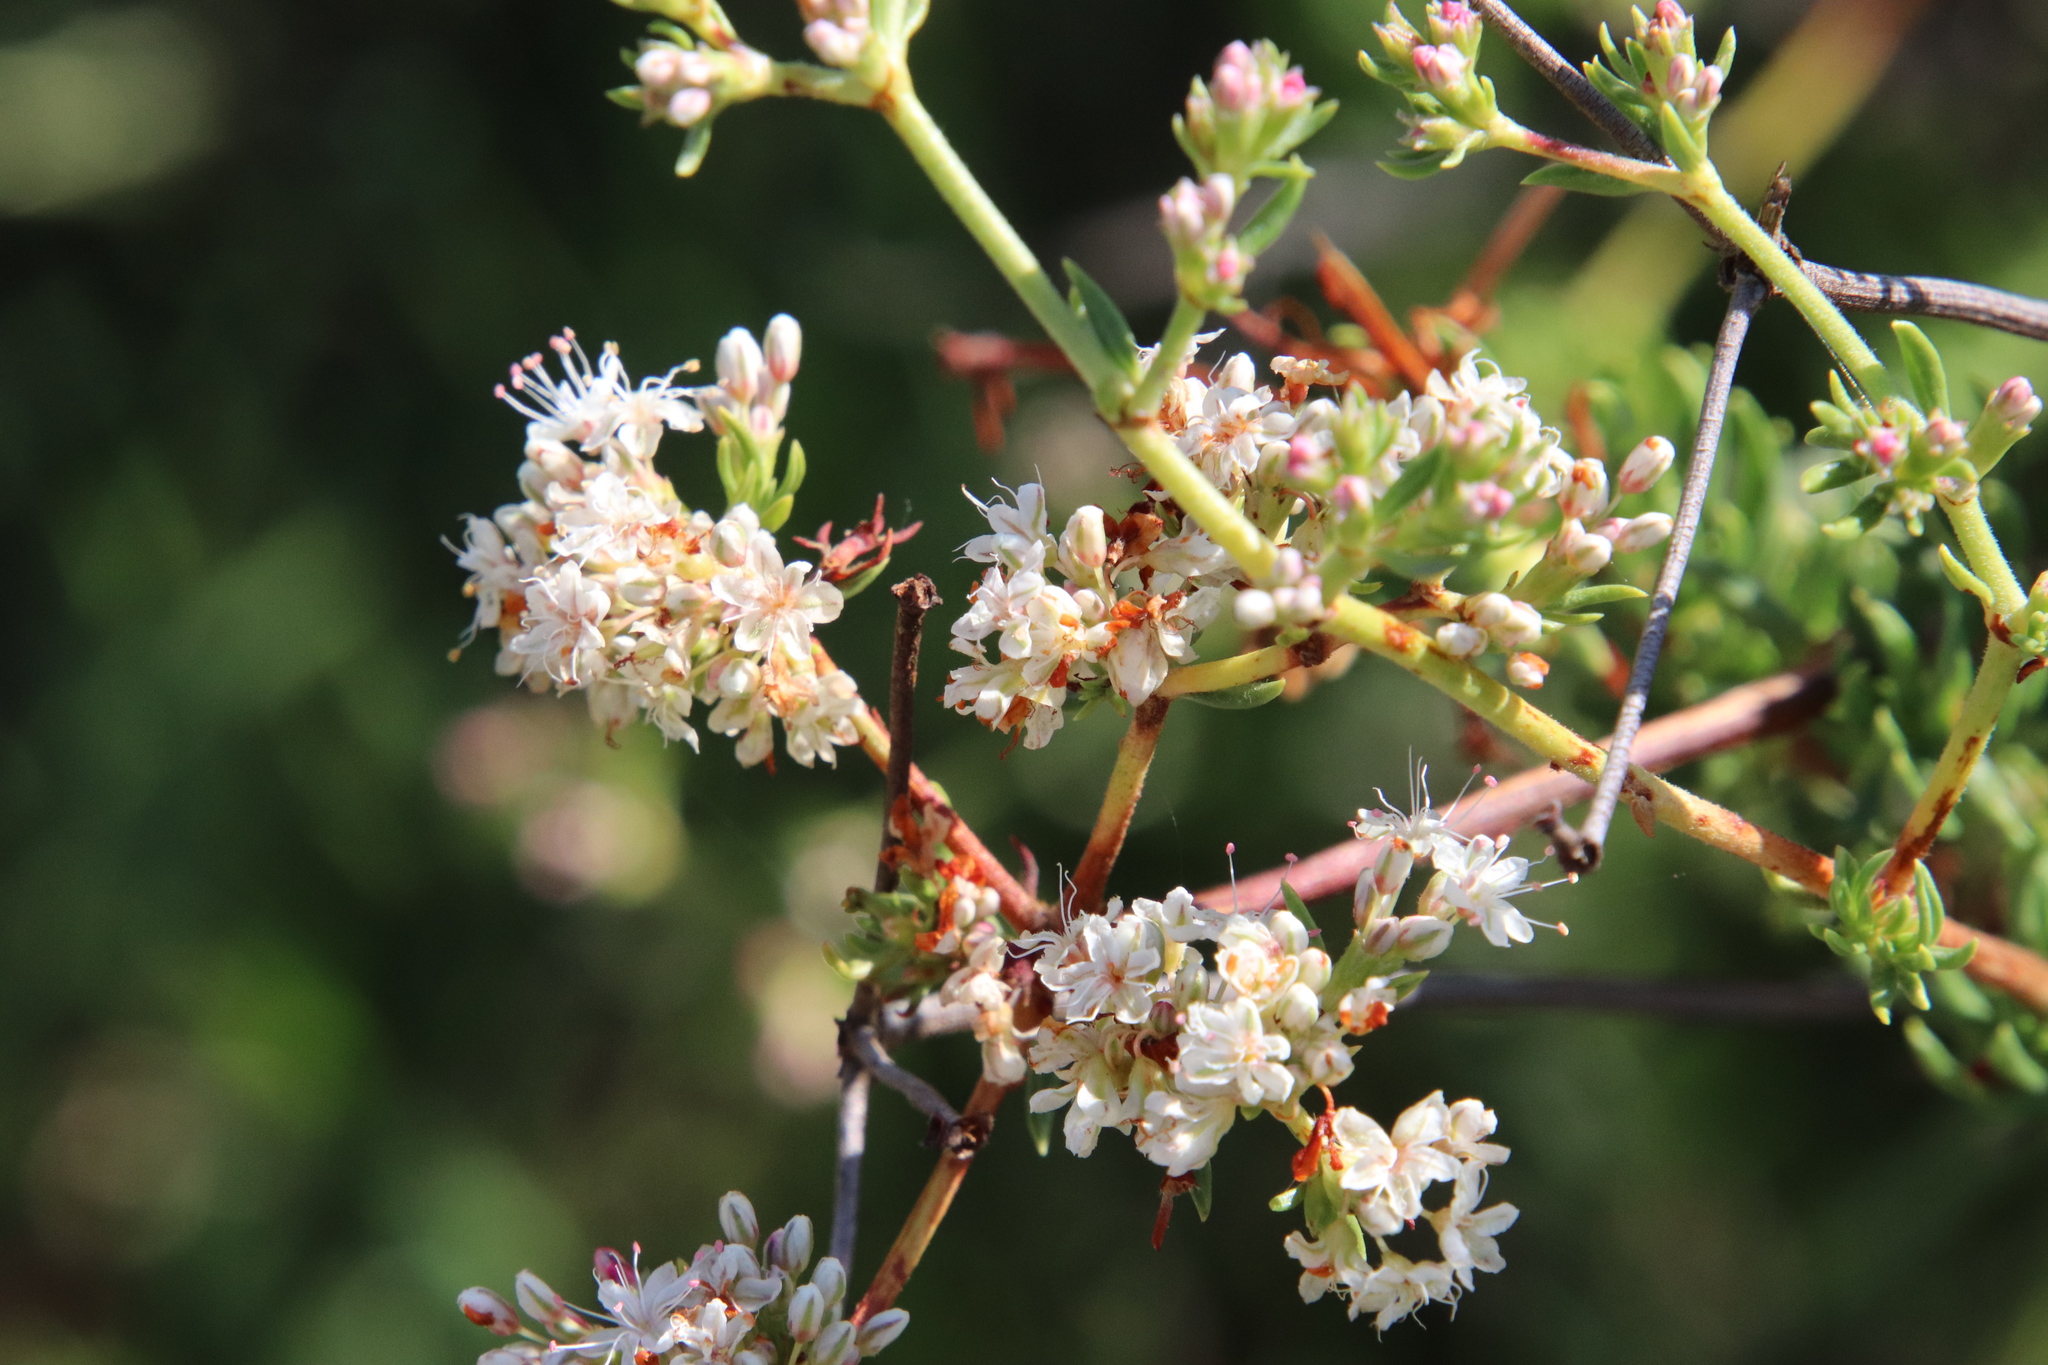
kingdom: Plantae
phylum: Tracheophyta
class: Magnoliopsida
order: Caryophyllales
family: Polygonaceae
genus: Eriogonum
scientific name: Eriogonum fasciculatum
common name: California wild buckwheat
